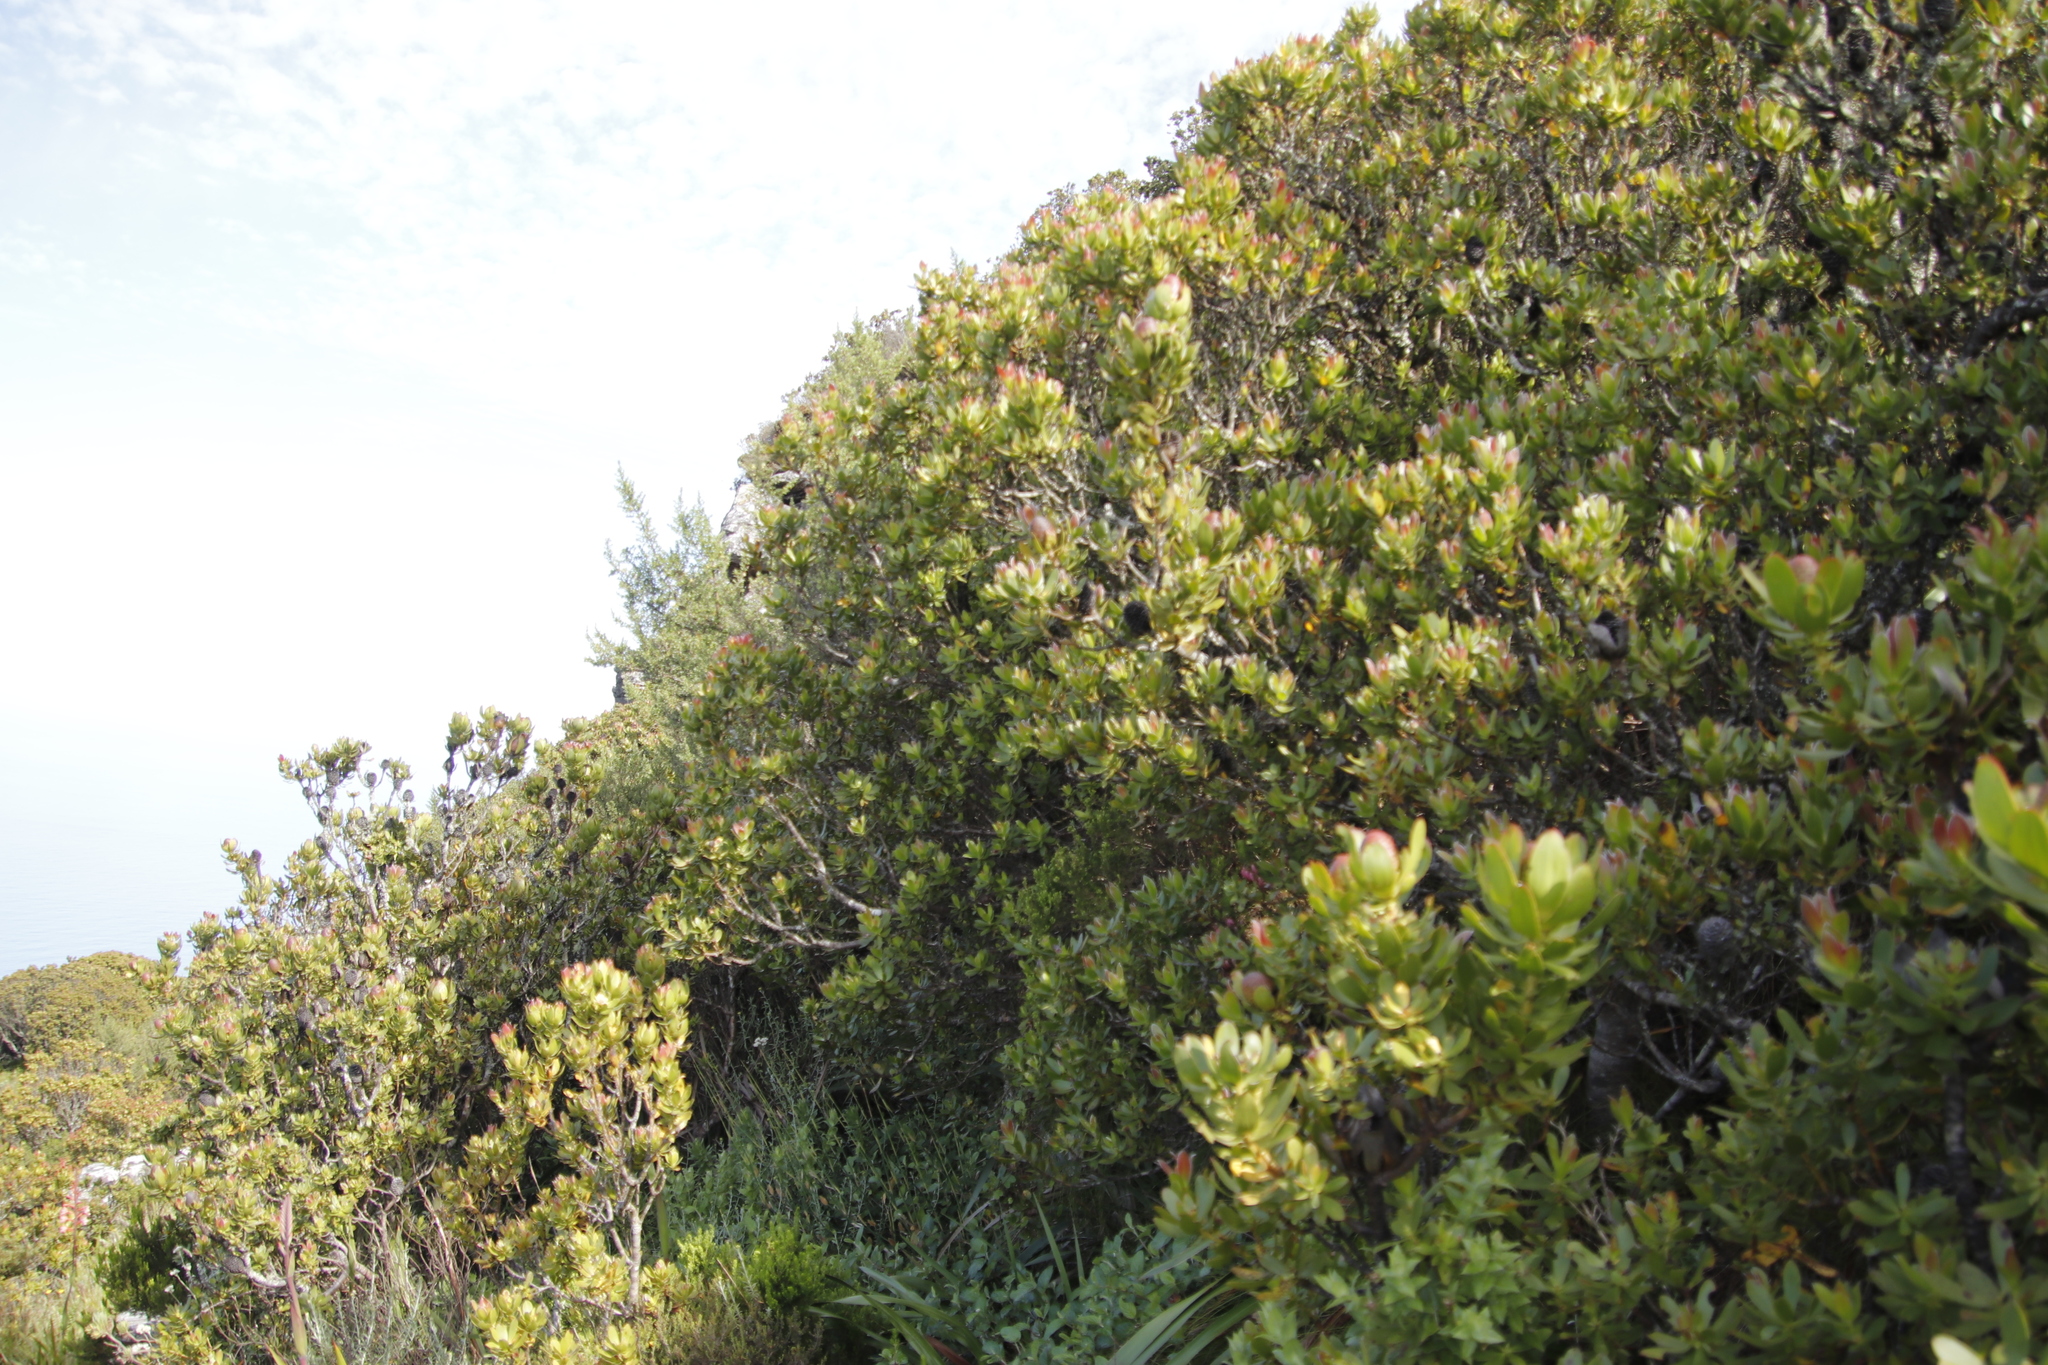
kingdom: Plantae
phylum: Tracheophyta
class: Magnoliopsida
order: Proteales
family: Proteaceae
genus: Leucadendron
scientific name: Leucadendron strobilinum
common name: Mountain rose
